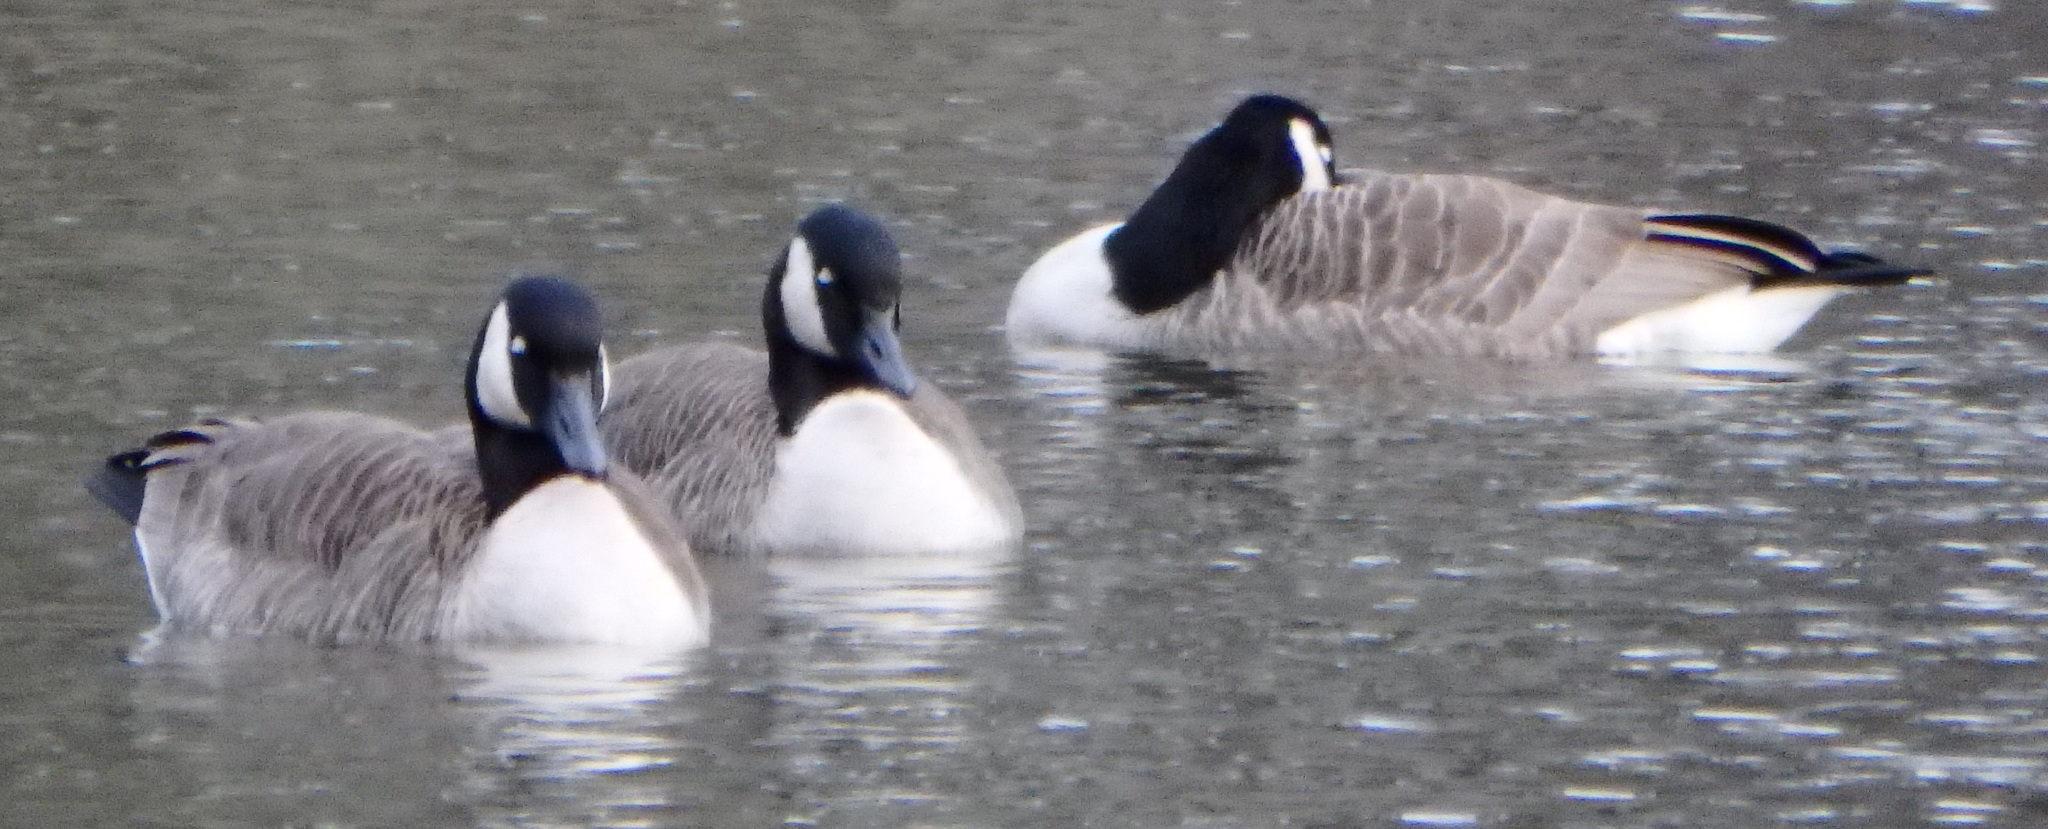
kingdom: Animalia
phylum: Chordata
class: Aves
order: Anseriformes
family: Anatidae
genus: Branta
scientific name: Branta canadensis
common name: Canada goose
